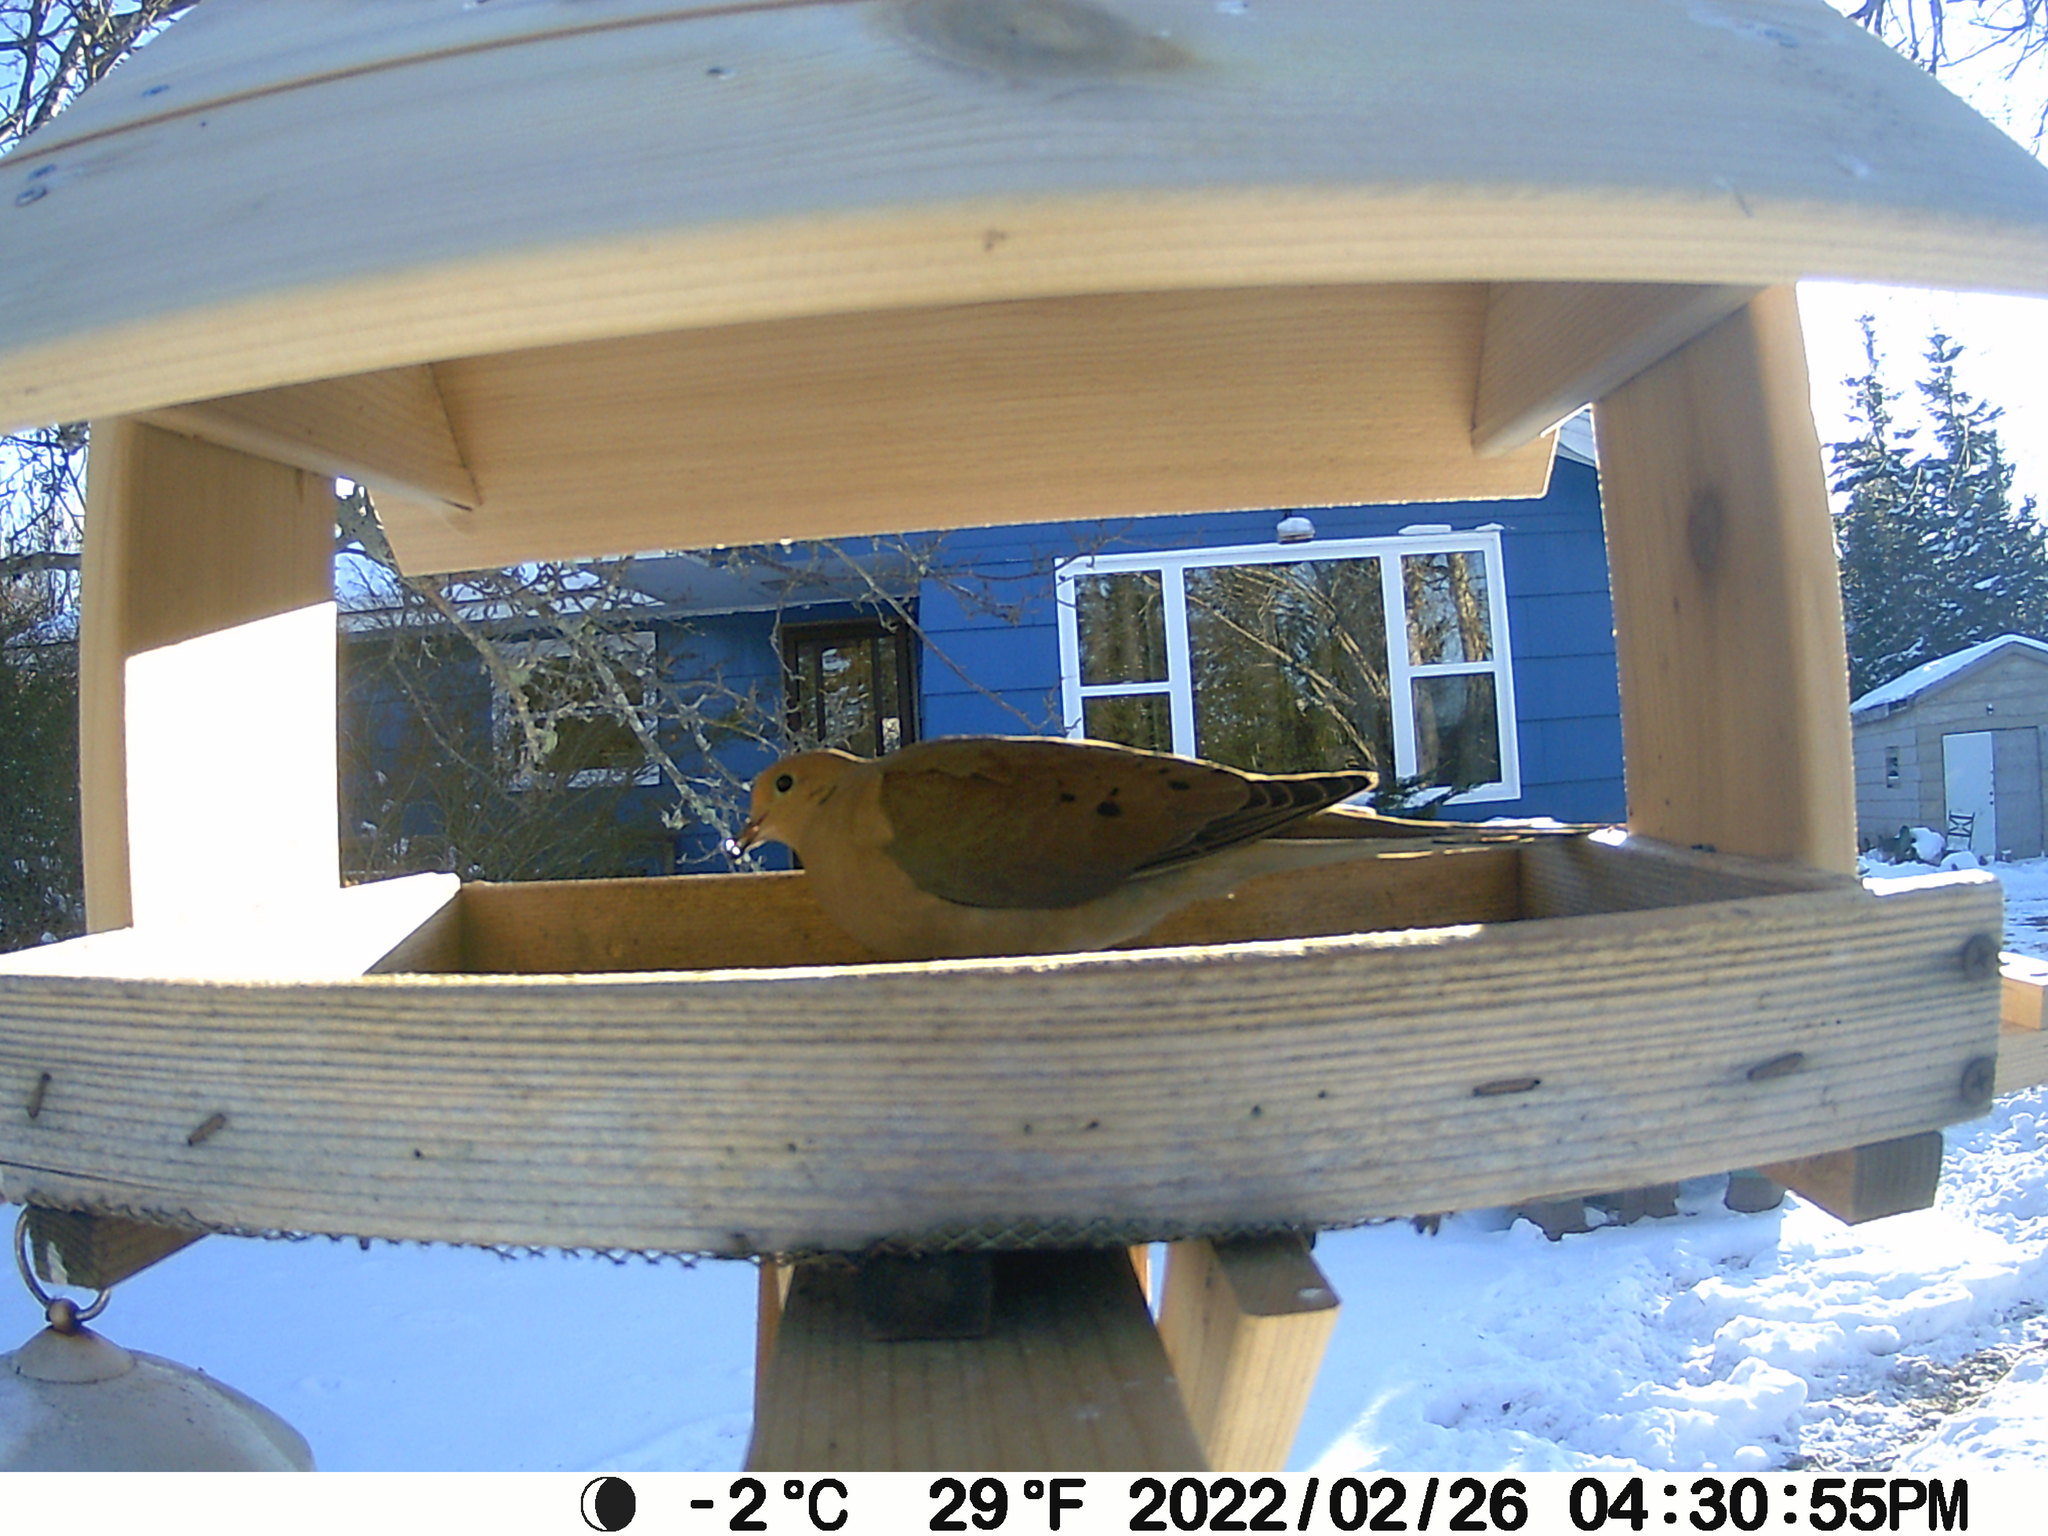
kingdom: Animalia
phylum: Chordata
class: Aves
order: Columbiformes
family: Columbidae
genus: Zenaida
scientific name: Zenaida macroura
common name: Mourning dove
